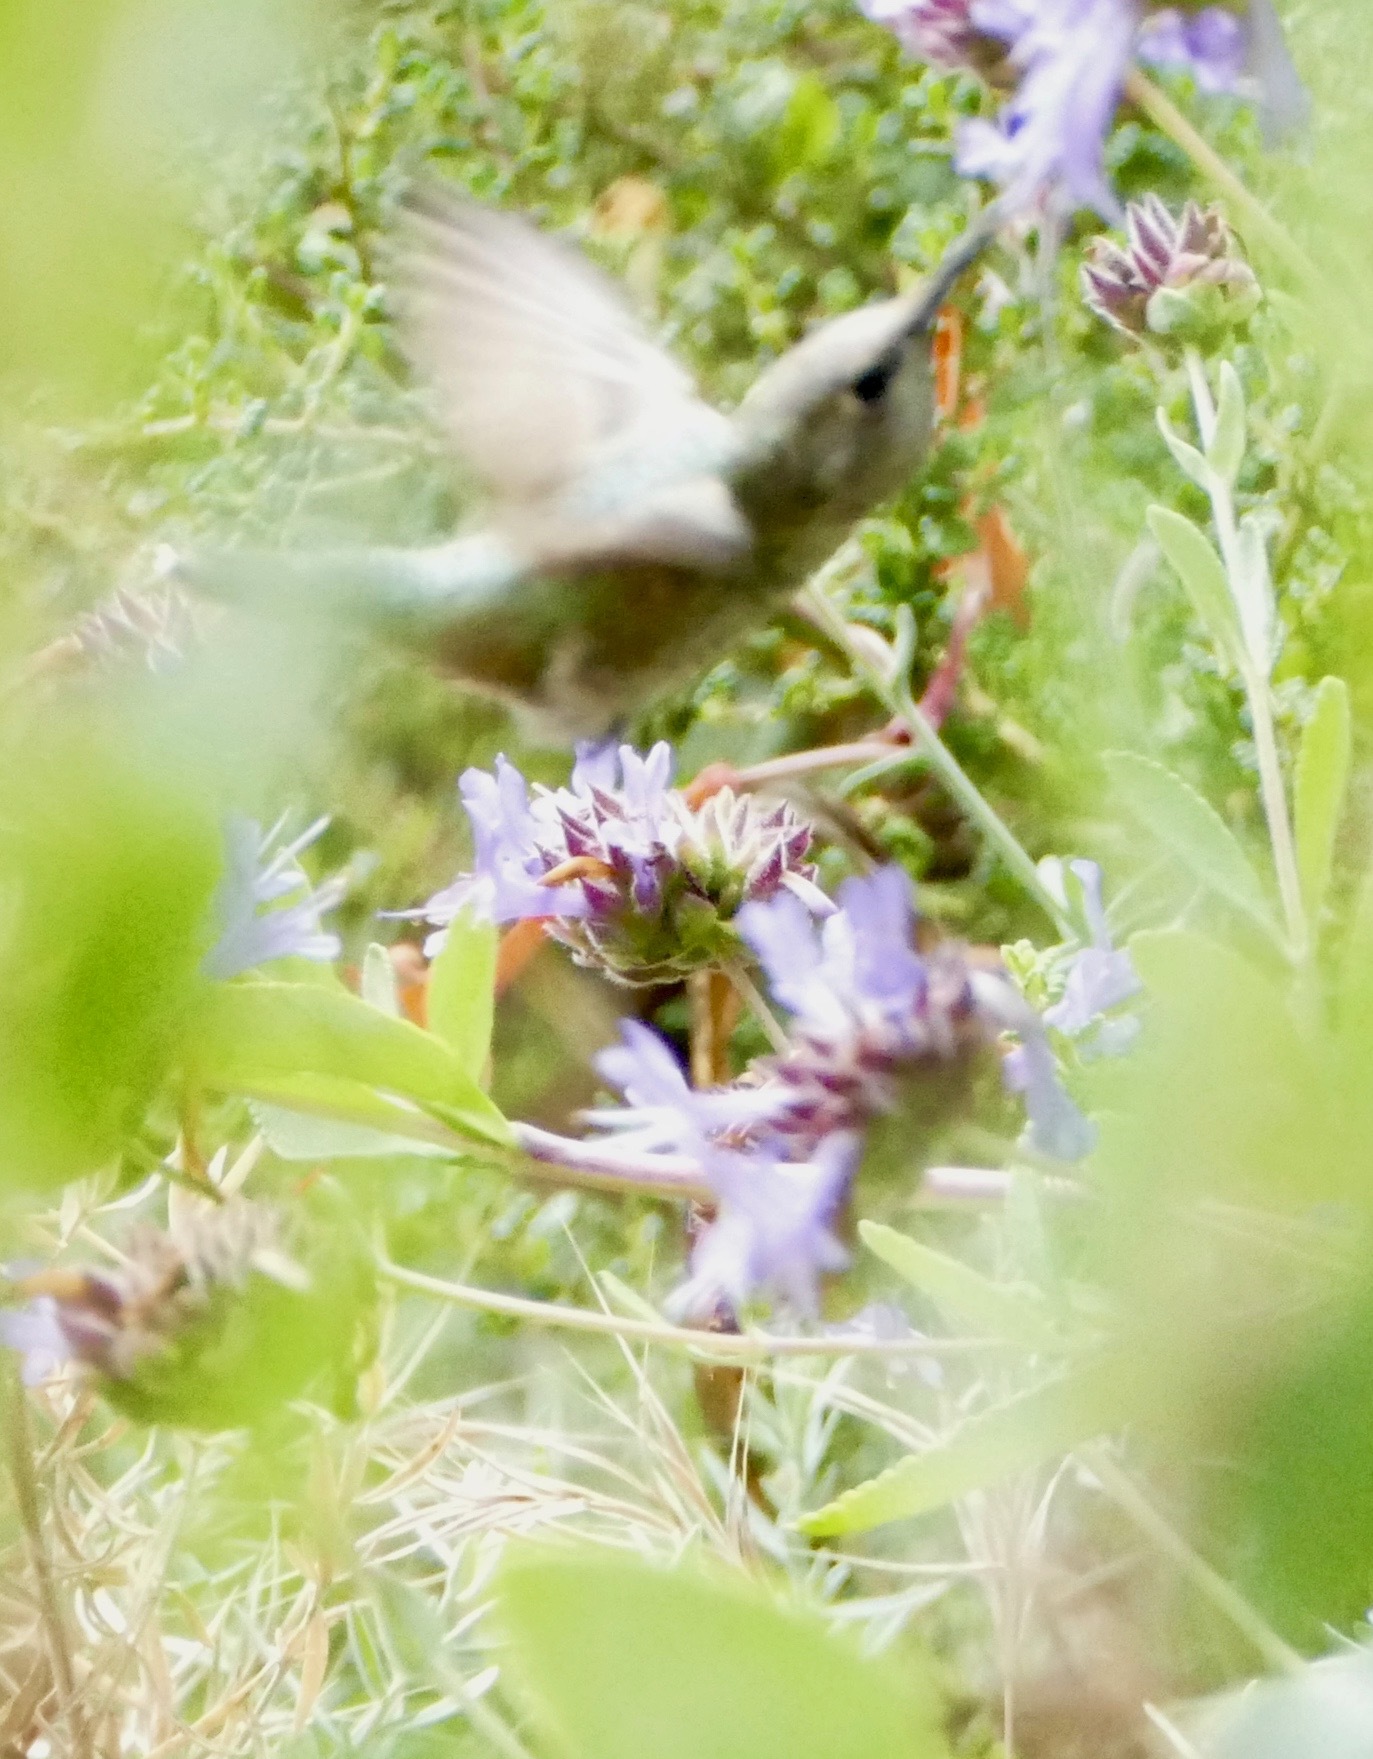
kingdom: Animalia
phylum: Chordata
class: Aves
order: Apodiformes
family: Trochilidae
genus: Calypte
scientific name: Calypte anna
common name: Anna's hummingbird
